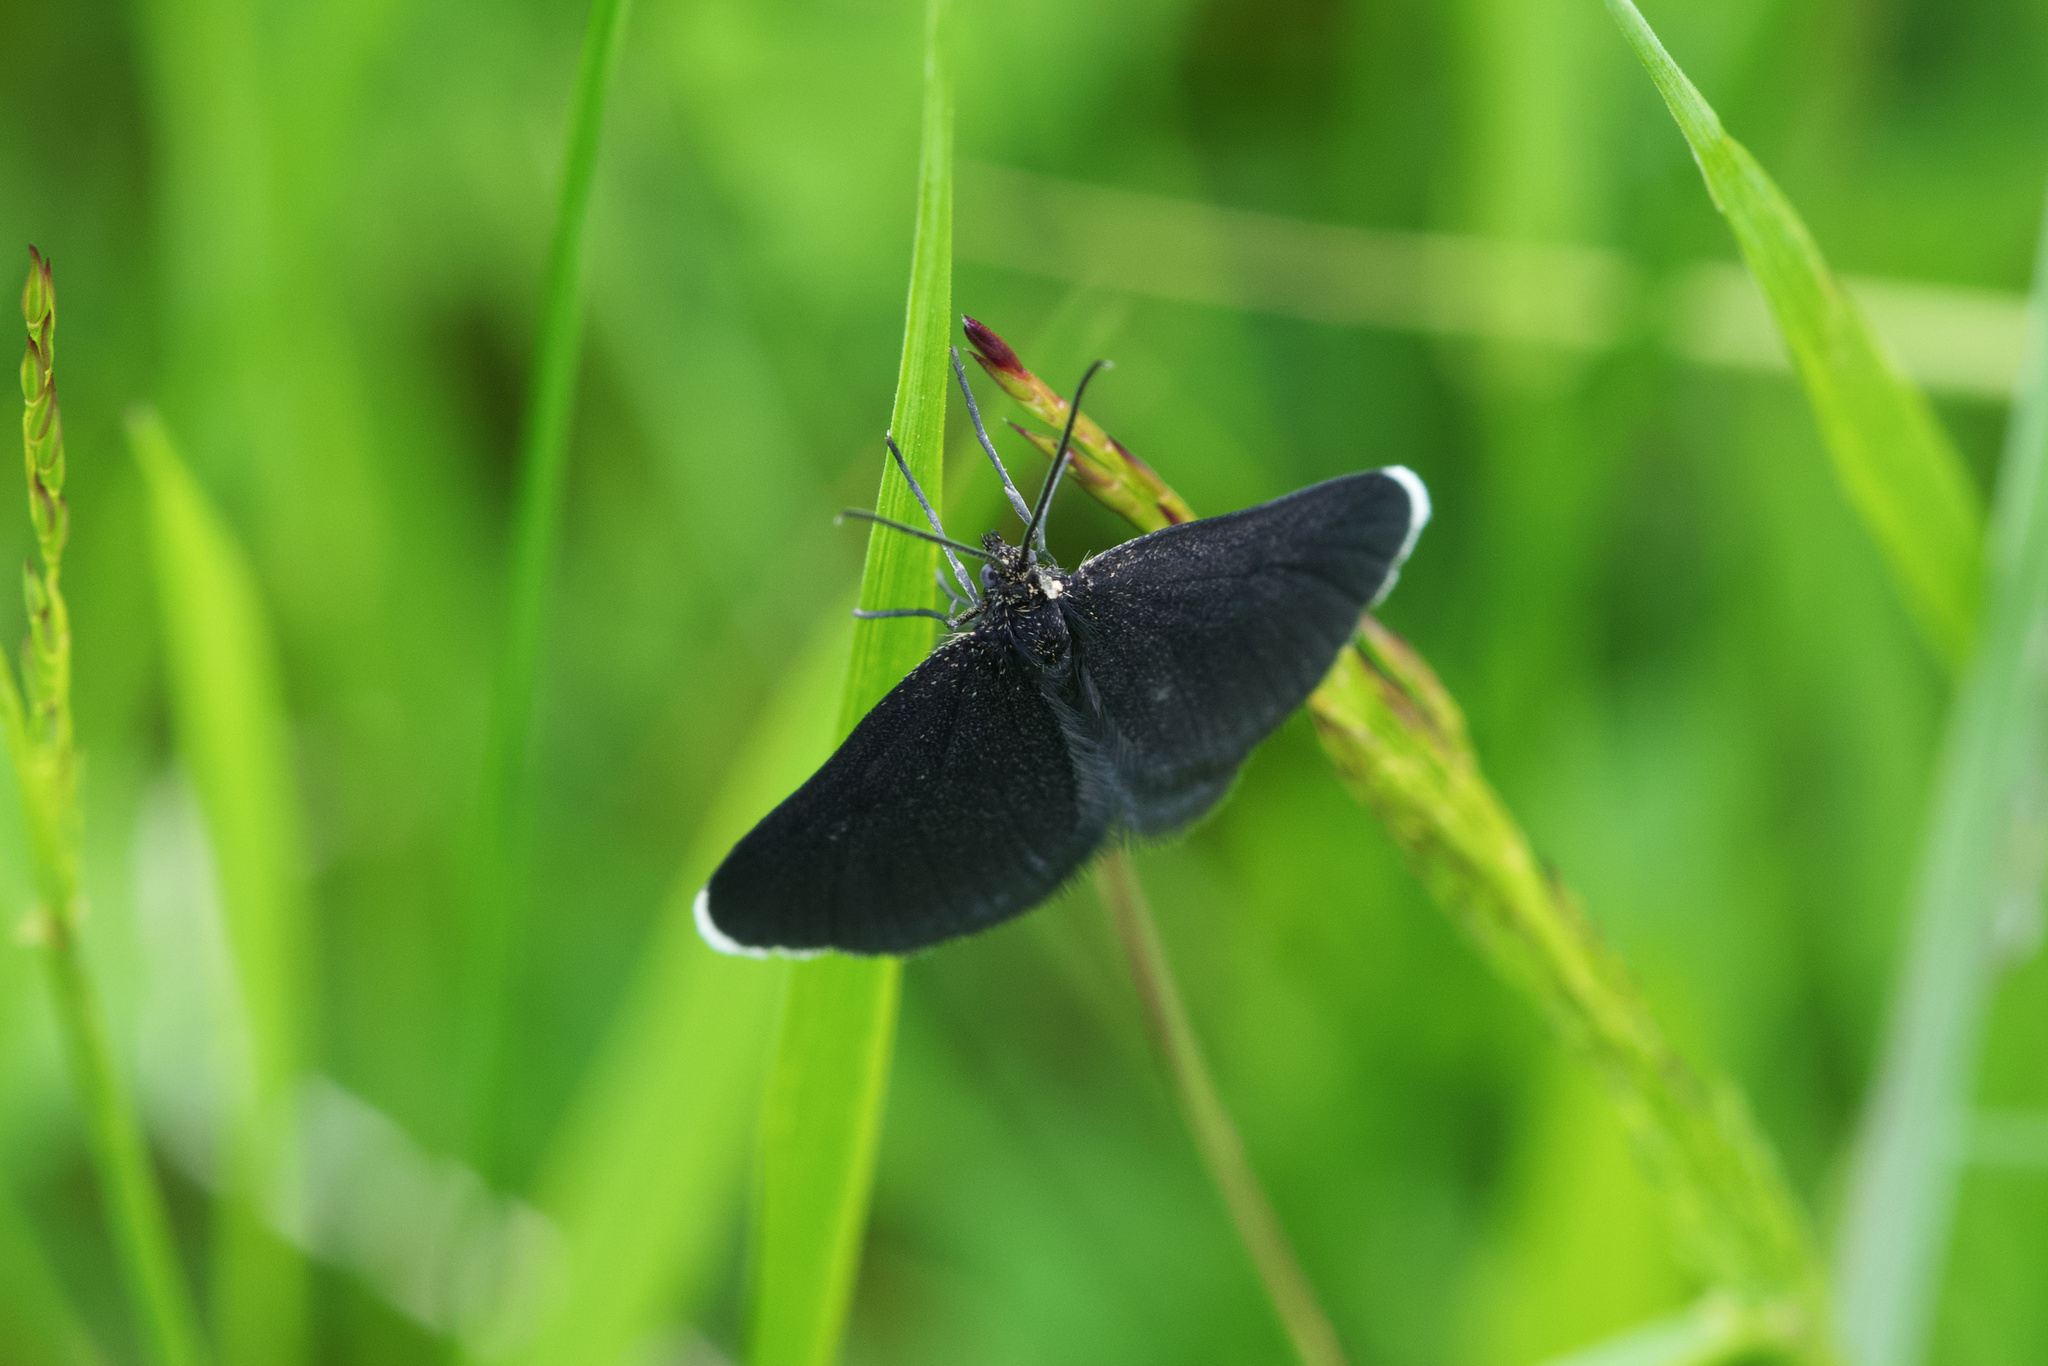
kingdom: Animalia
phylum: Arthropoda
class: Insecta
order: Lepidoptera
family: Geometridae
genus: Odezia
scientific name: Odezia atrata
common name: Chimney sweeper
